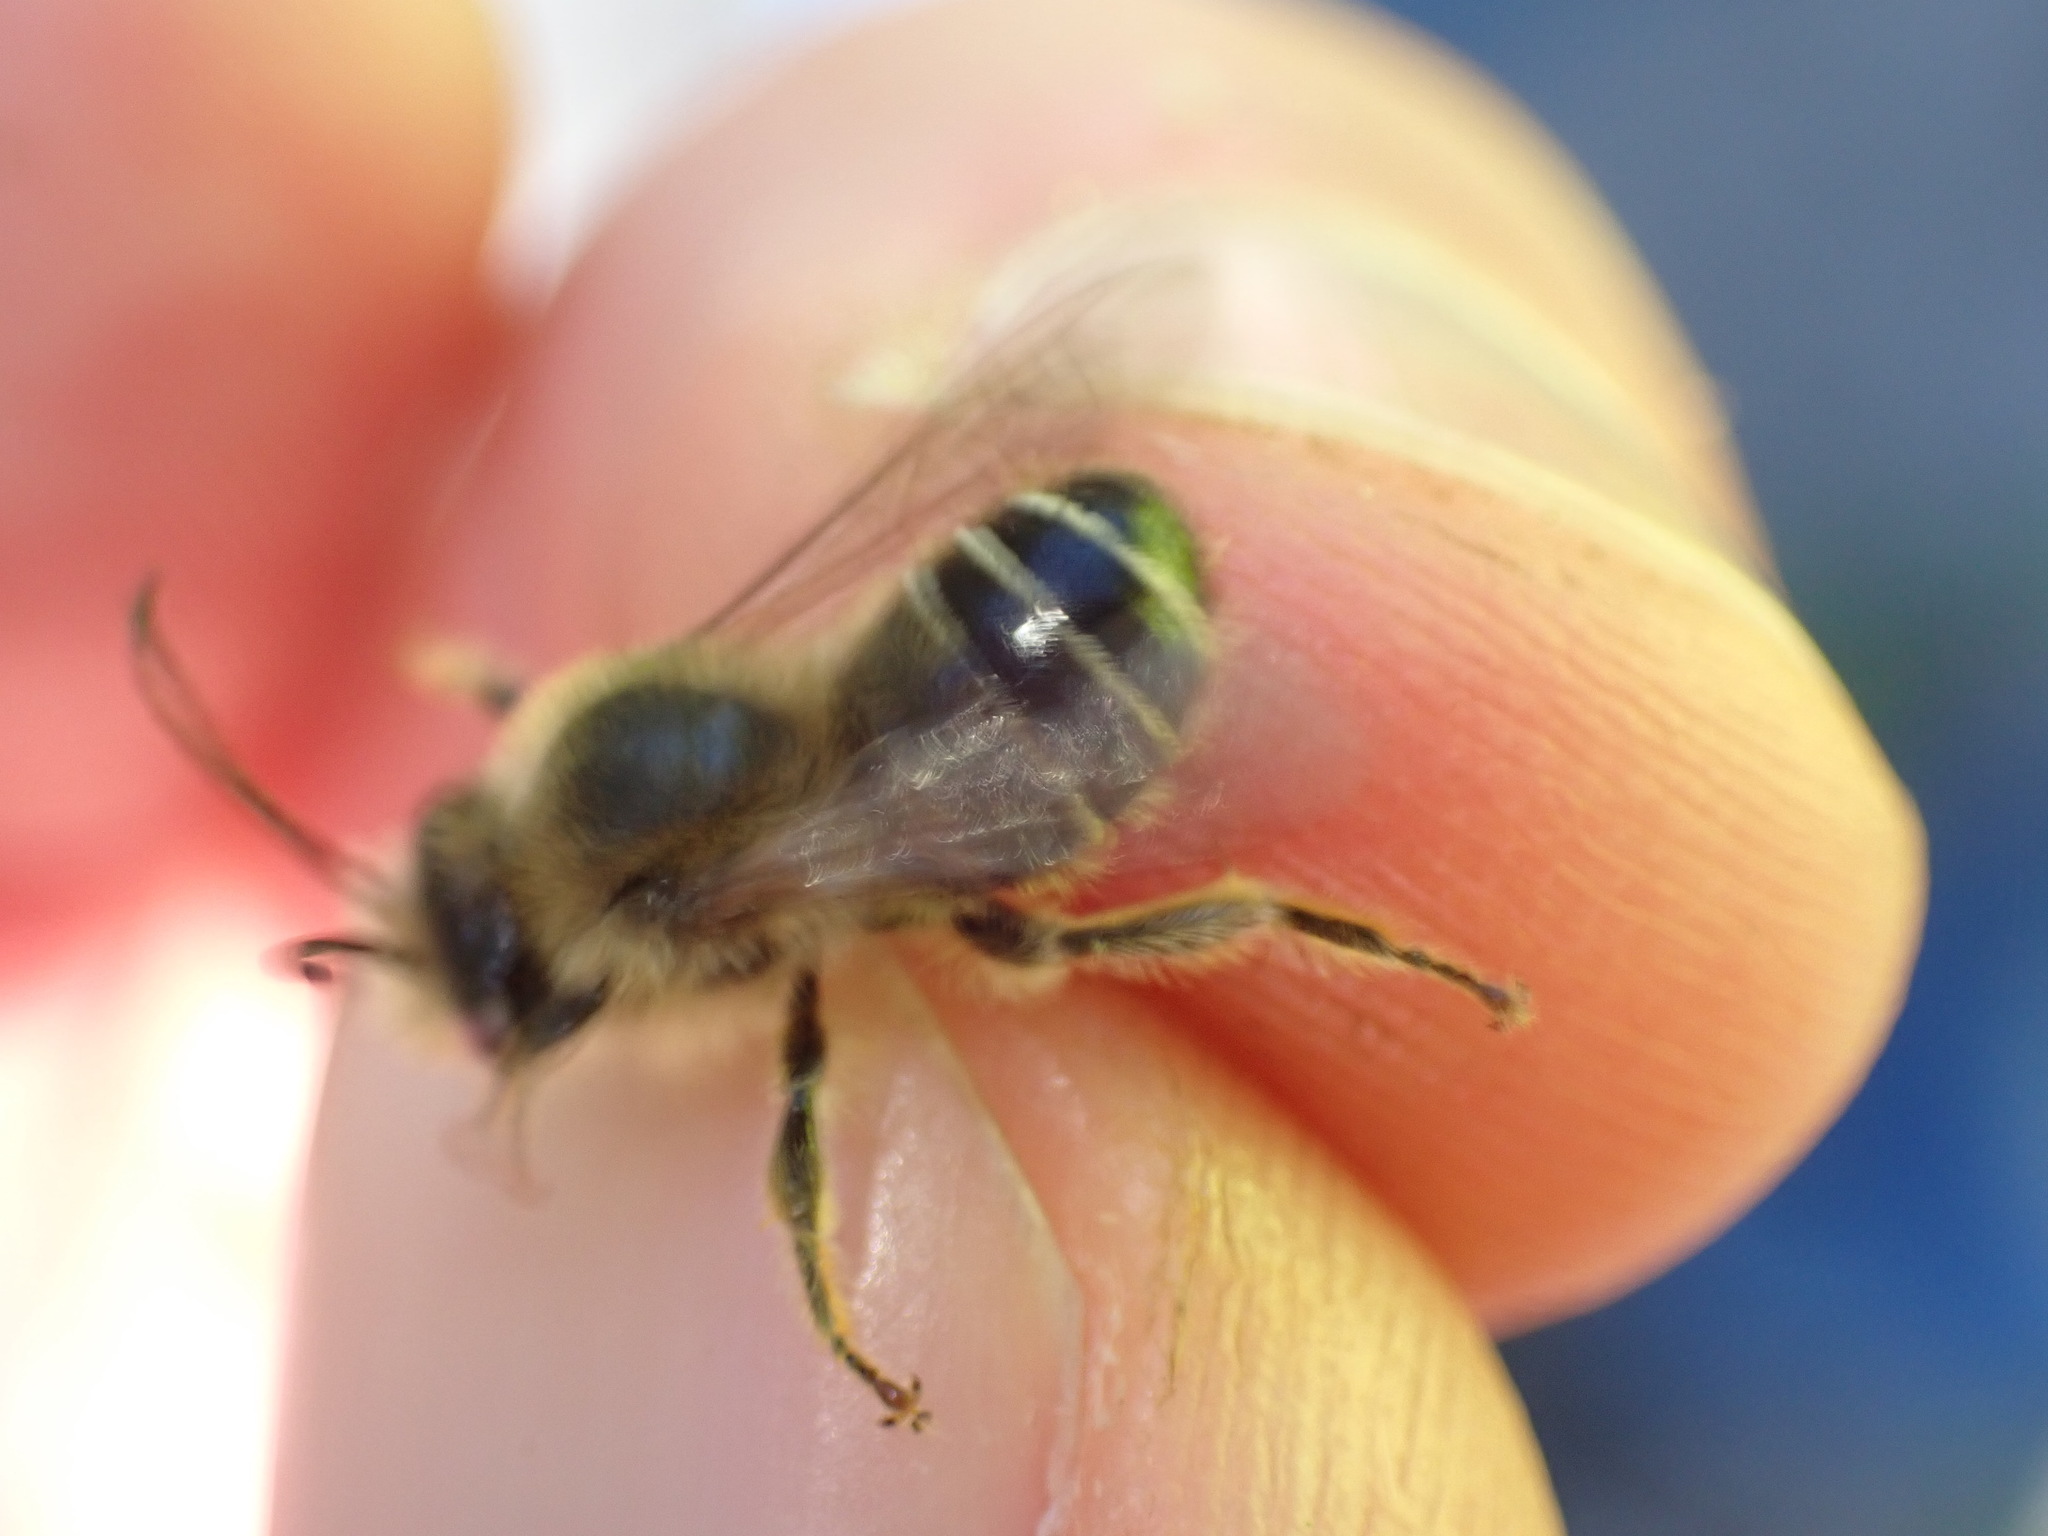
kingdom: Animalia
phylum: Arthropoda
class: Insecta
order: Hymenoptera
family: Melittidae
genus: Melitta
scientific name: Melitta nigricans
